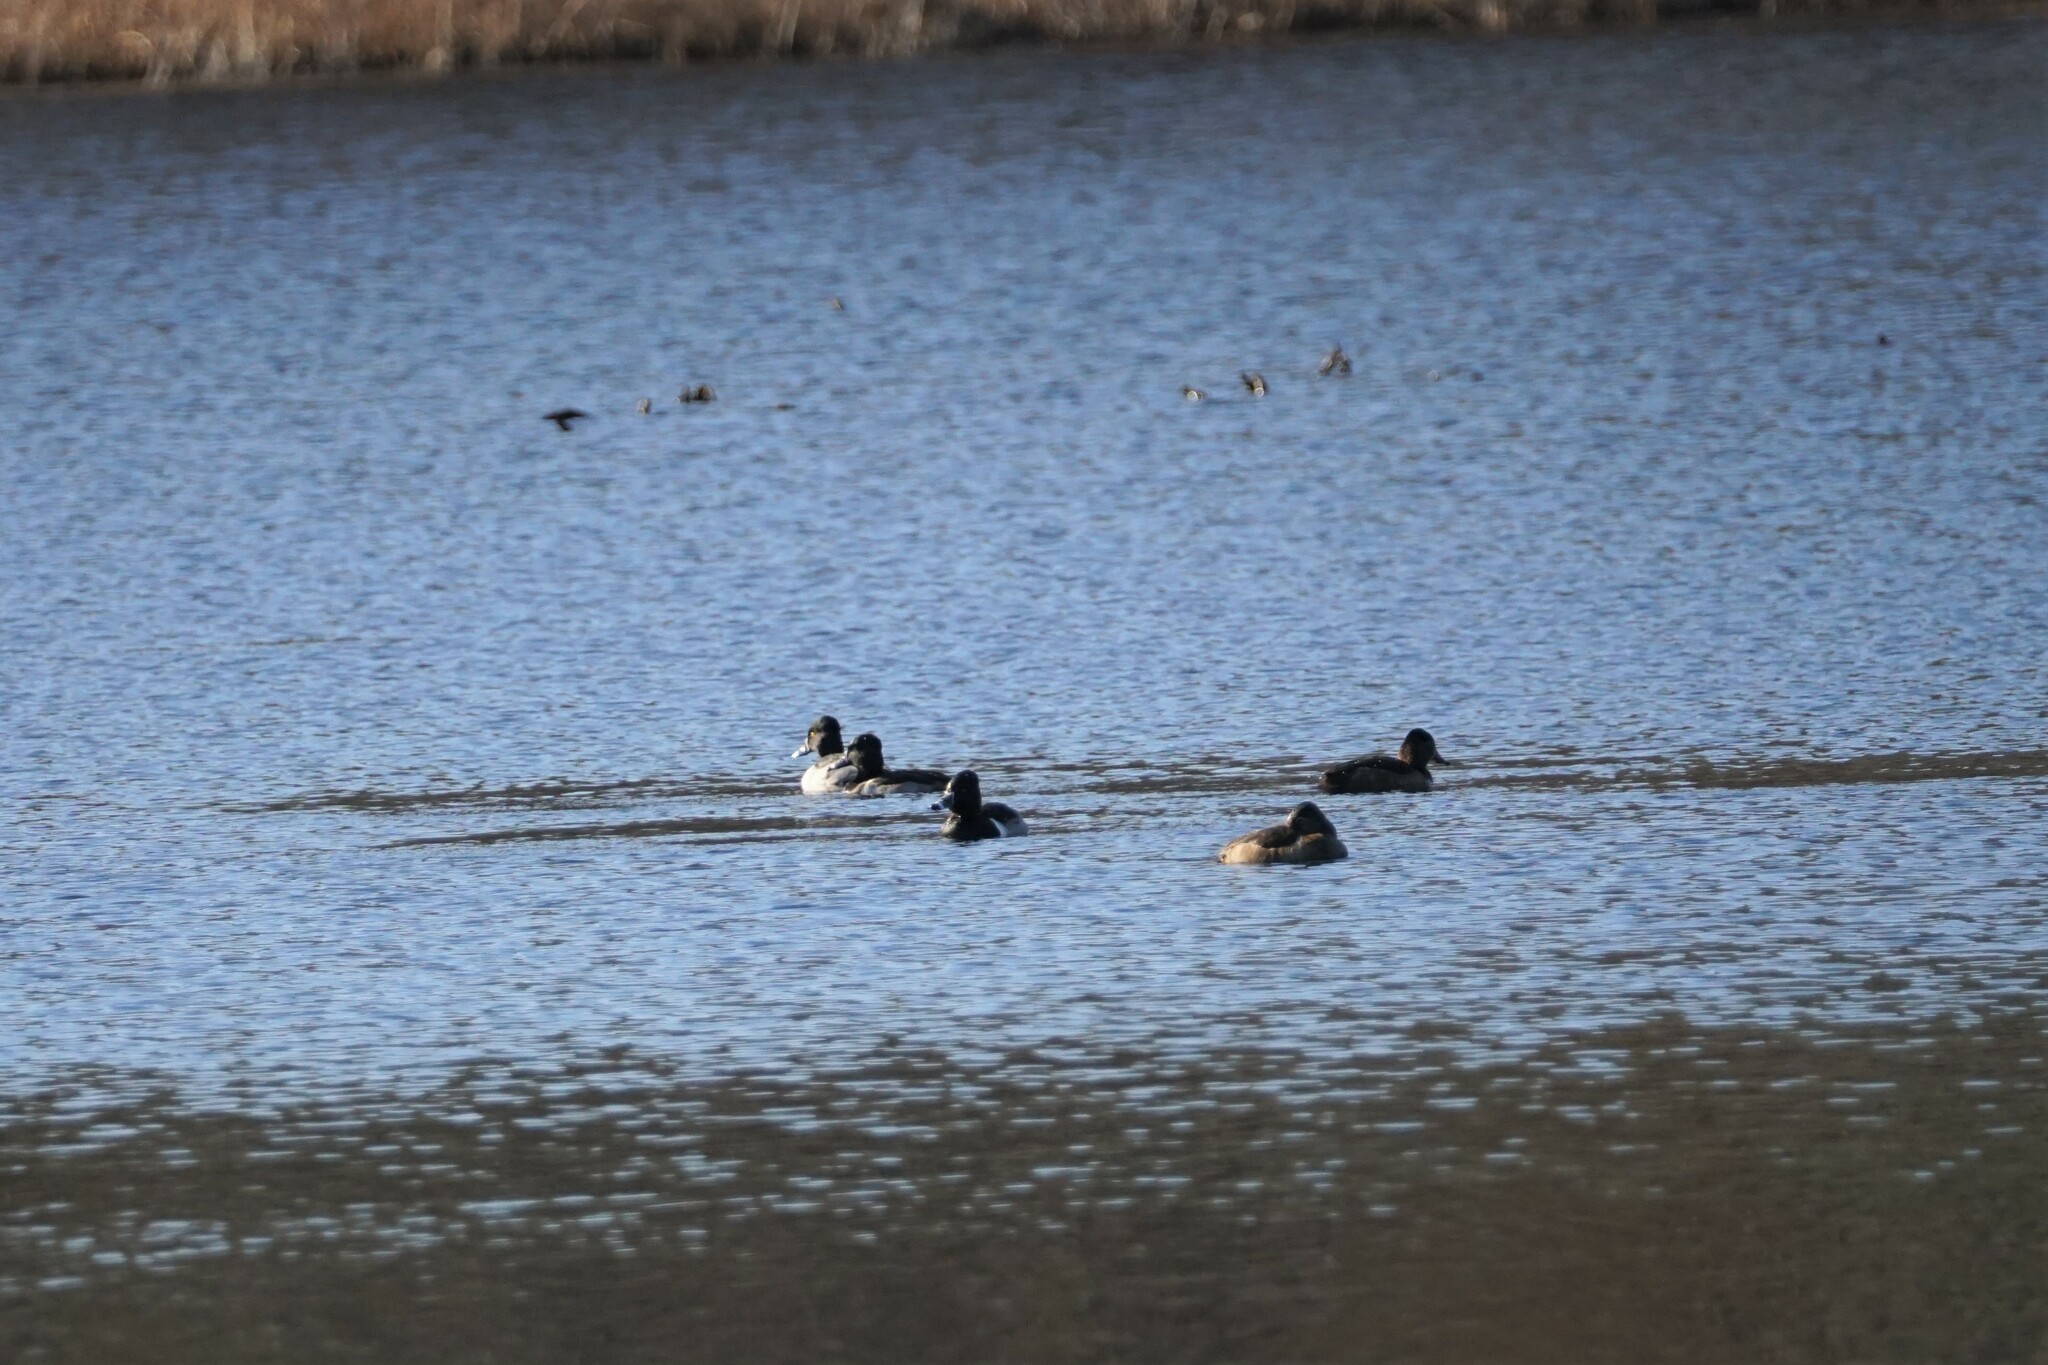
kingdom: Animalia
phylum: Chordata
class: Aves
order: Anseriformes
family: Anatidae
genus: Aythya
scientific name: Aythya collaris
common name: Ring-necked duck
